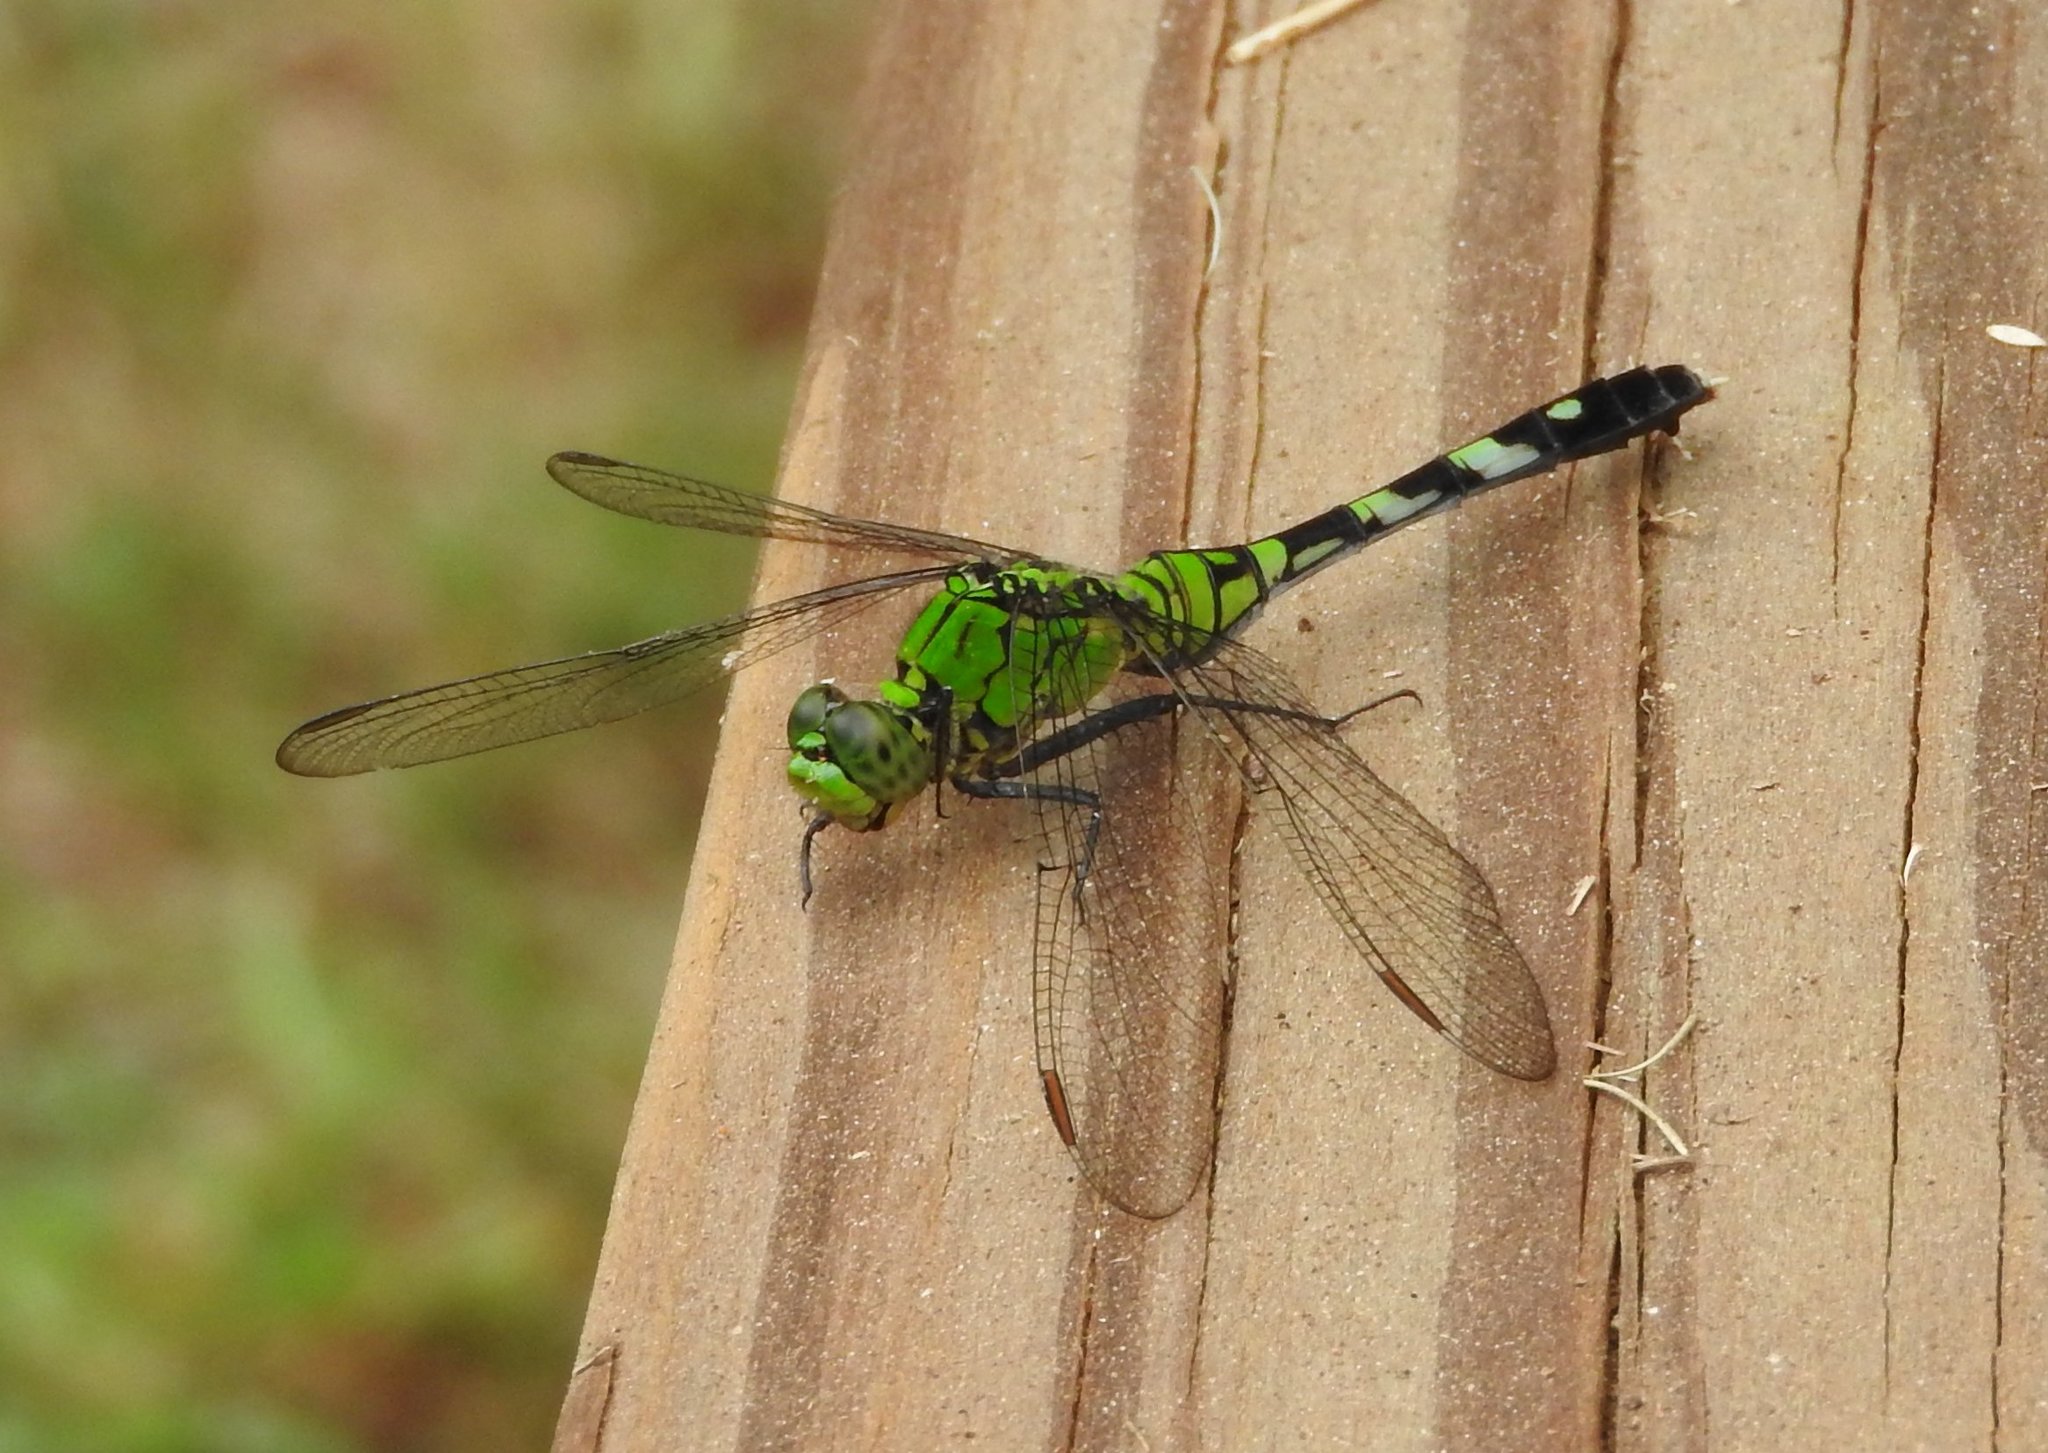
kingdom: Animalia
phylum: Arthropoda
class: Insecta
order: Odonata
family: Libellulidae
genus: Erythemis
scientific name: Erythemis simplicicollis
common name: Eastern pondhawk
